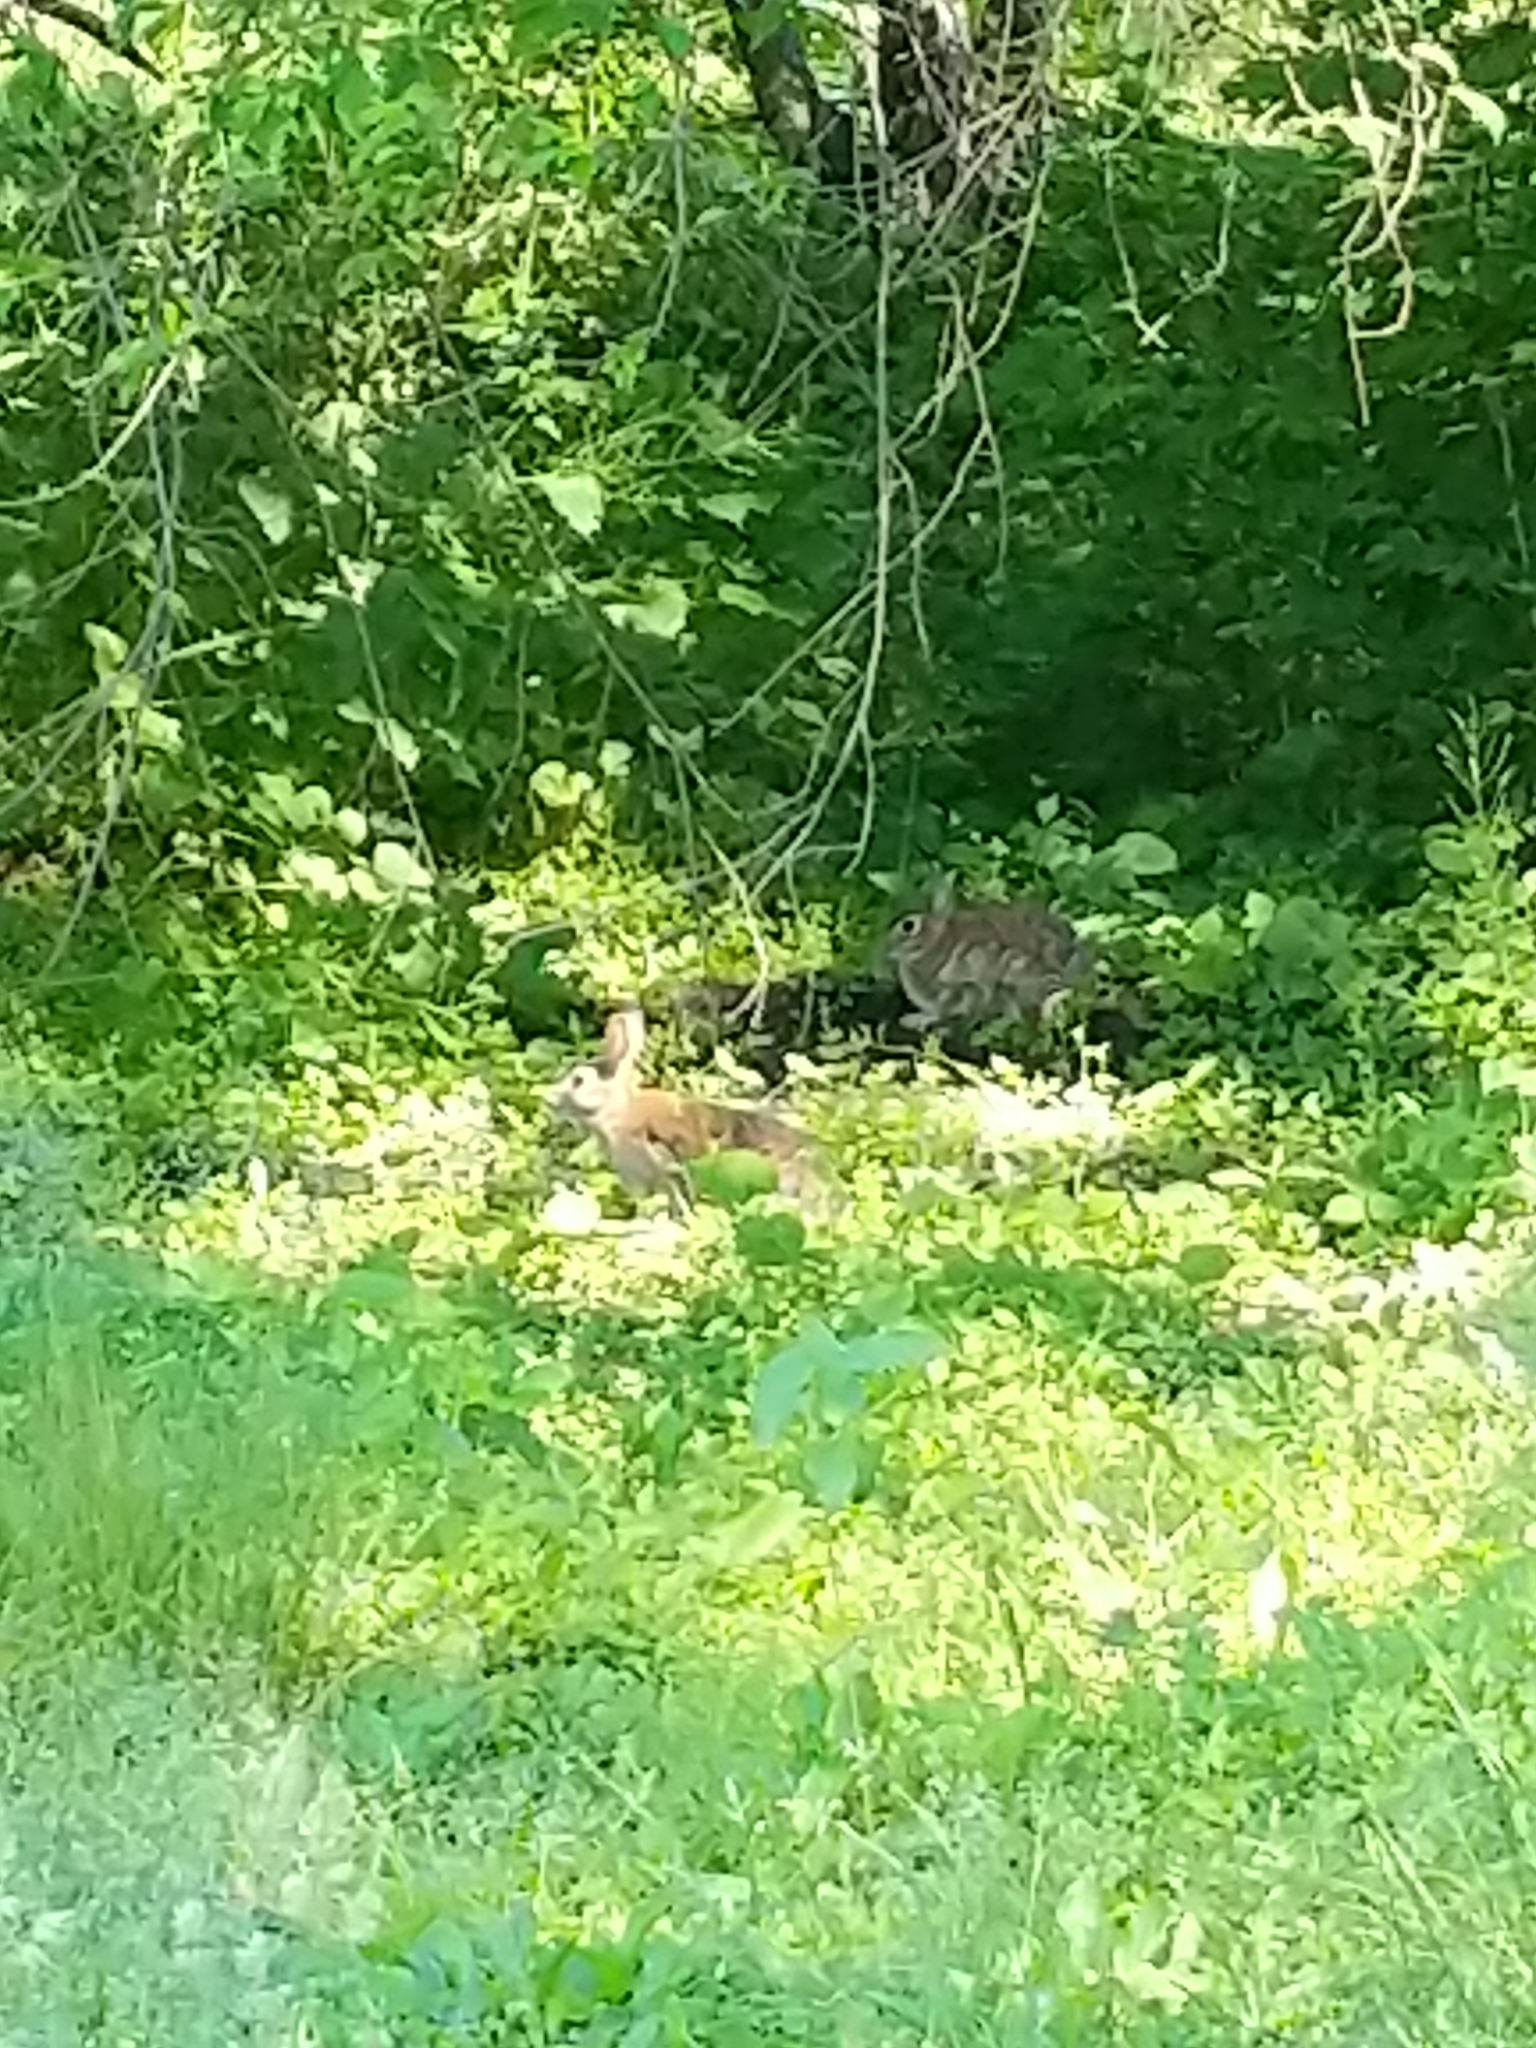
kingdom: Animalia
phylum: Chordata
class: Mammalia
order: Lagomorpha
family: Leporidae
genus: Sylvilagus
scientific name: Sylvilagus floridanus
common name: Eastern cottontail
